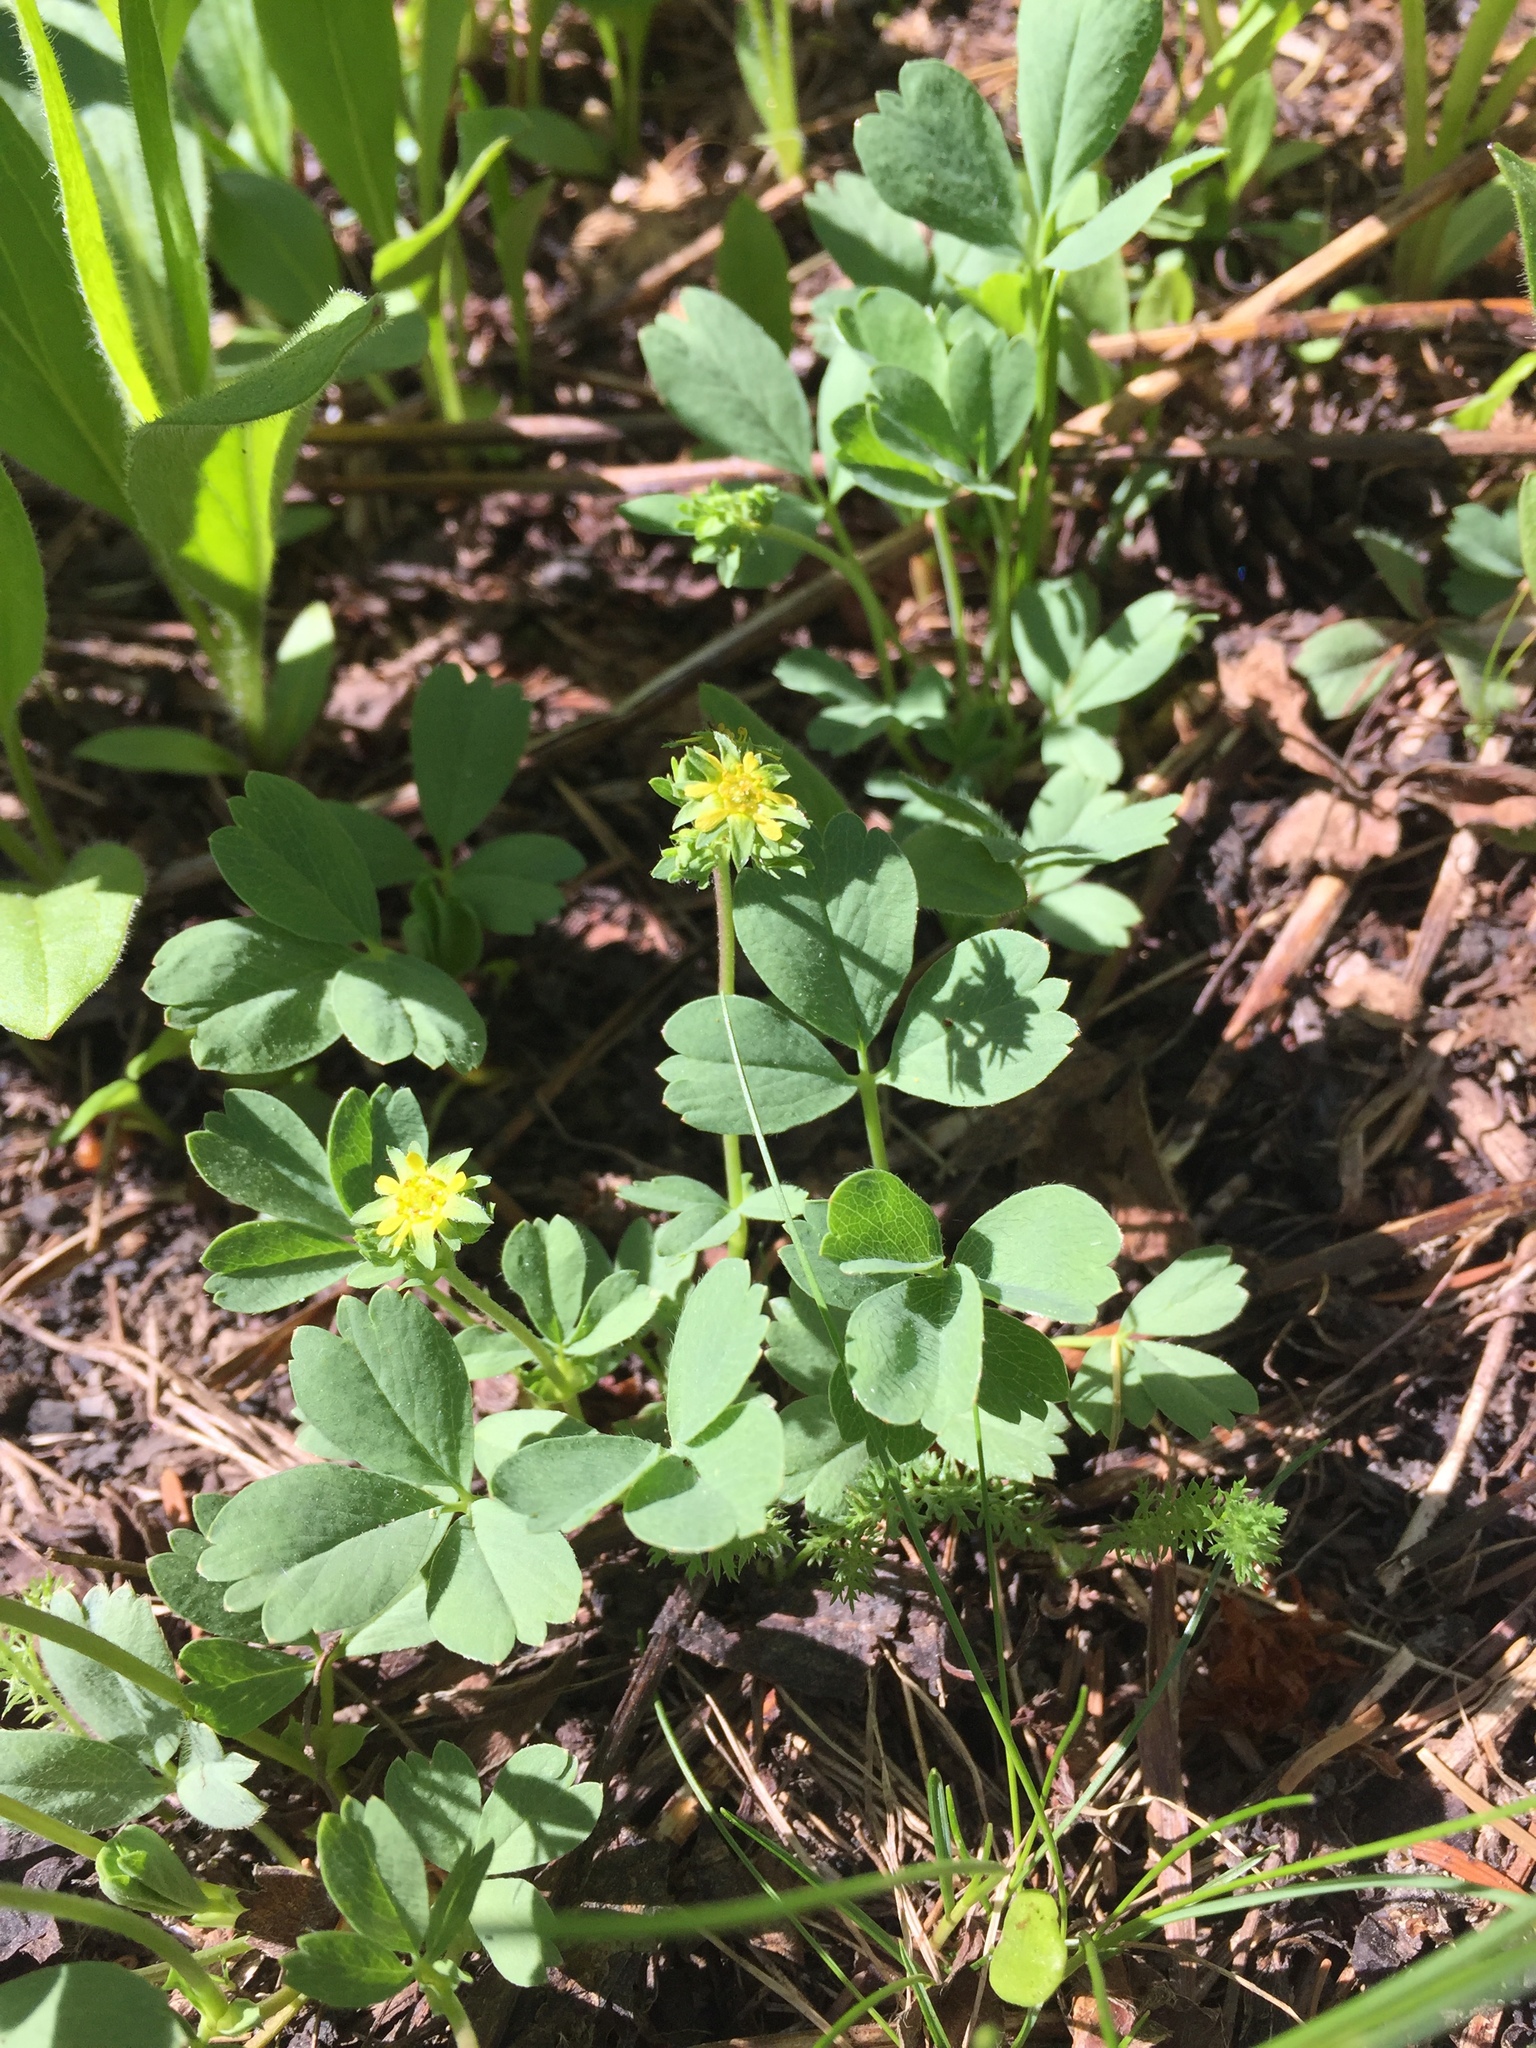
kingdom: Plantae
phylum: Tracheophyta
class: Magnoliopsida
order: Rosales
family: Rosaceae
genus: Sibbaldia
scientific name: Sibbaldia procumbens
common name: Creeping sibbaldia
